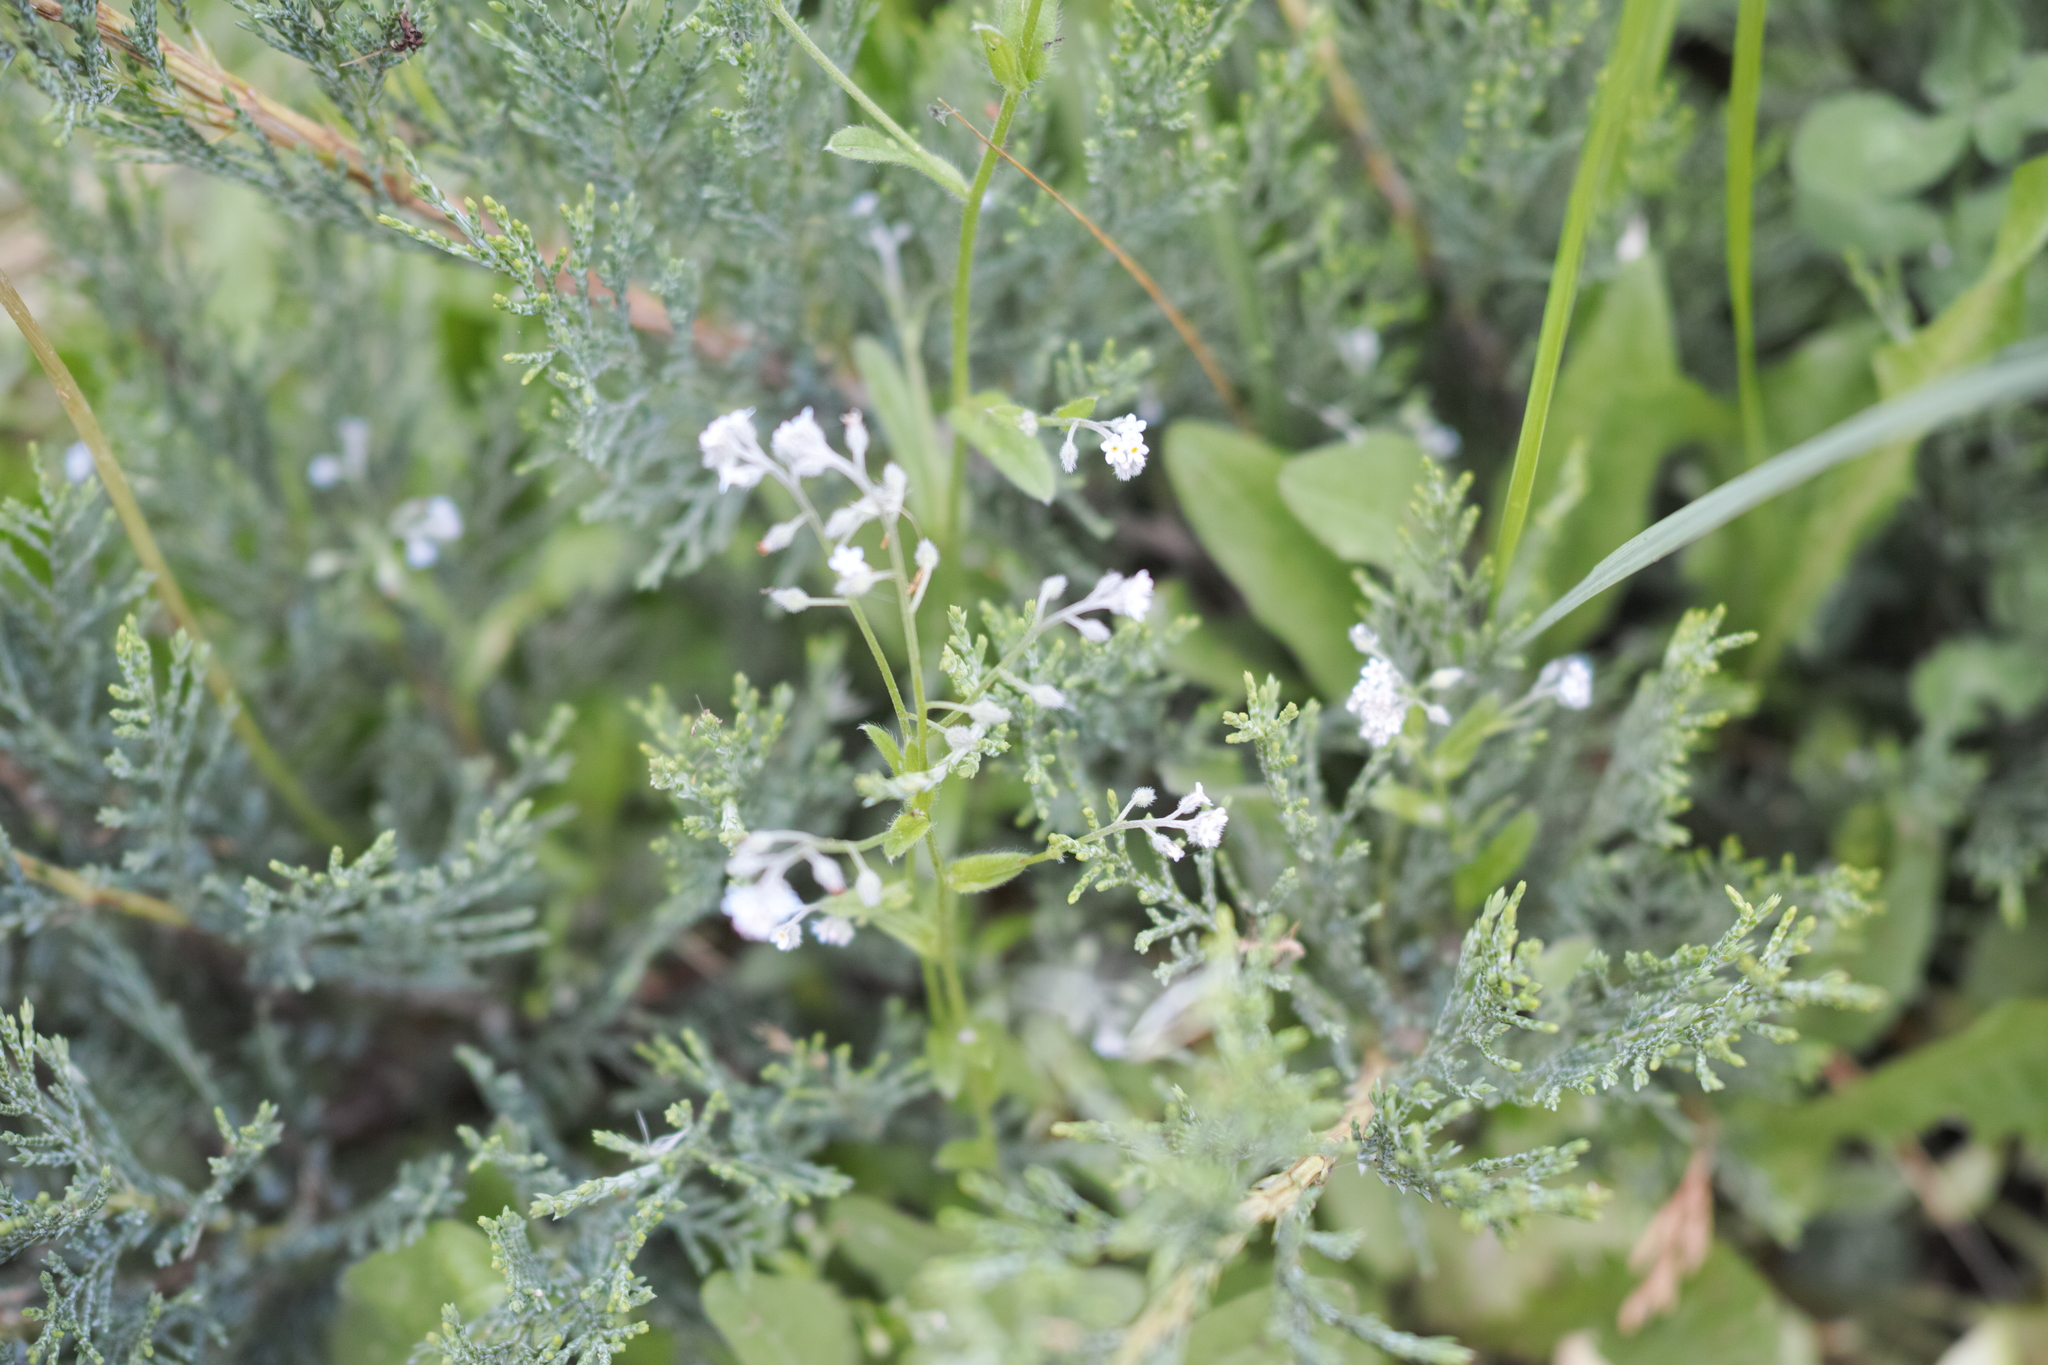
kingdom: Plantae
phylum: Tracheophyta
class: Magnoliopsida
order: Boraginales
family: Boraginaceae
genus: Myosotis
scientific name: Myosotis arvensis
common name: Field forget-me-not
